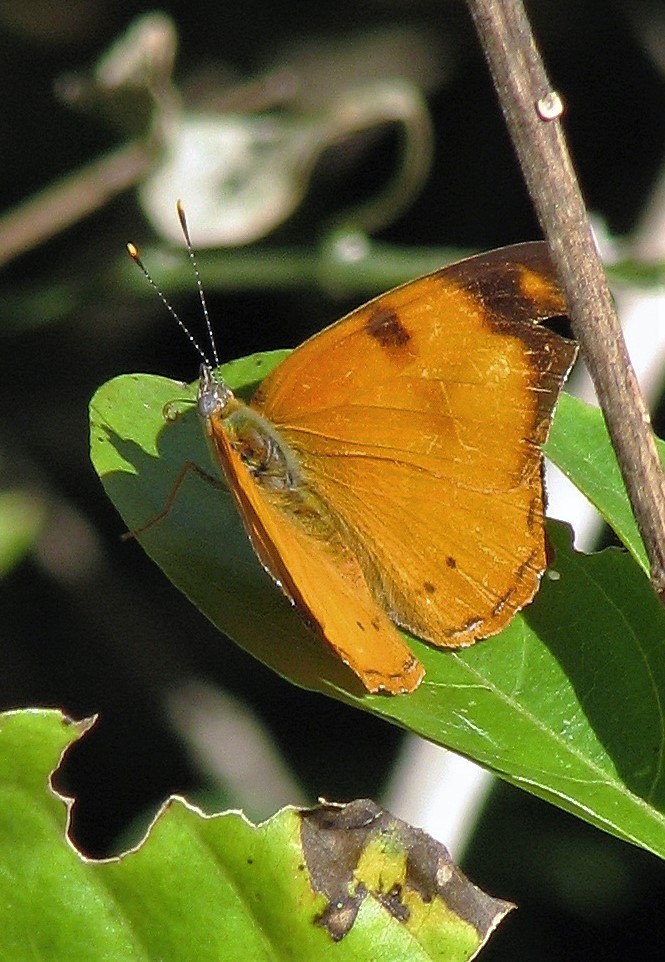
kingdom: Animalia
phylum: Arthropoda
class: Insecta
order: Lepidoptera
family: Nymphalidae
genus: Nica
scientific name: Nica flavilla
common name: Mandarin nica
